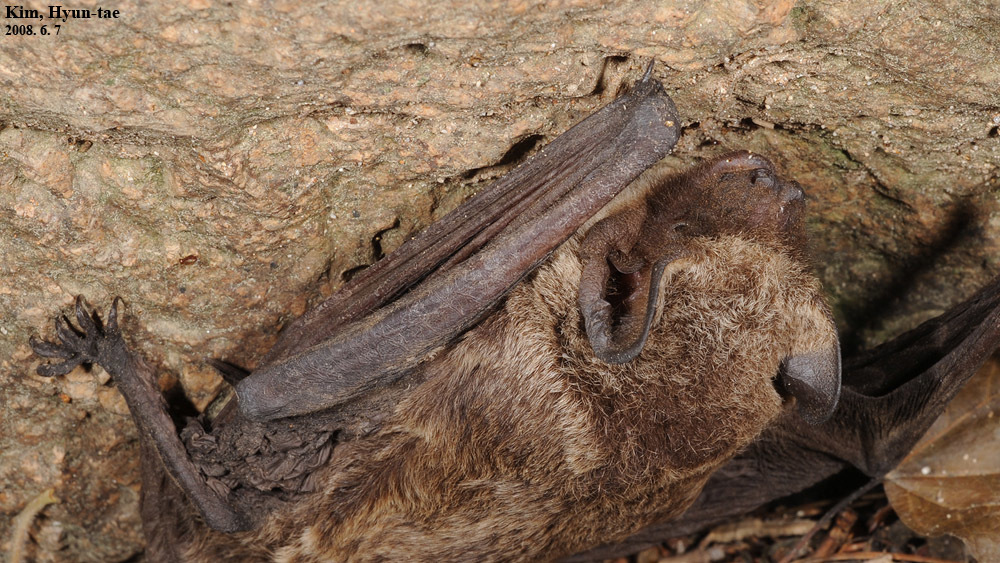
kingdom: Animalia
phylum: Chordata
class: Mammalia
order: Chiroptera
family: Vespertilionidae
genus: Vespertilio
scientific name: Vespertilio sinensis
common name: Asian particolored bat
